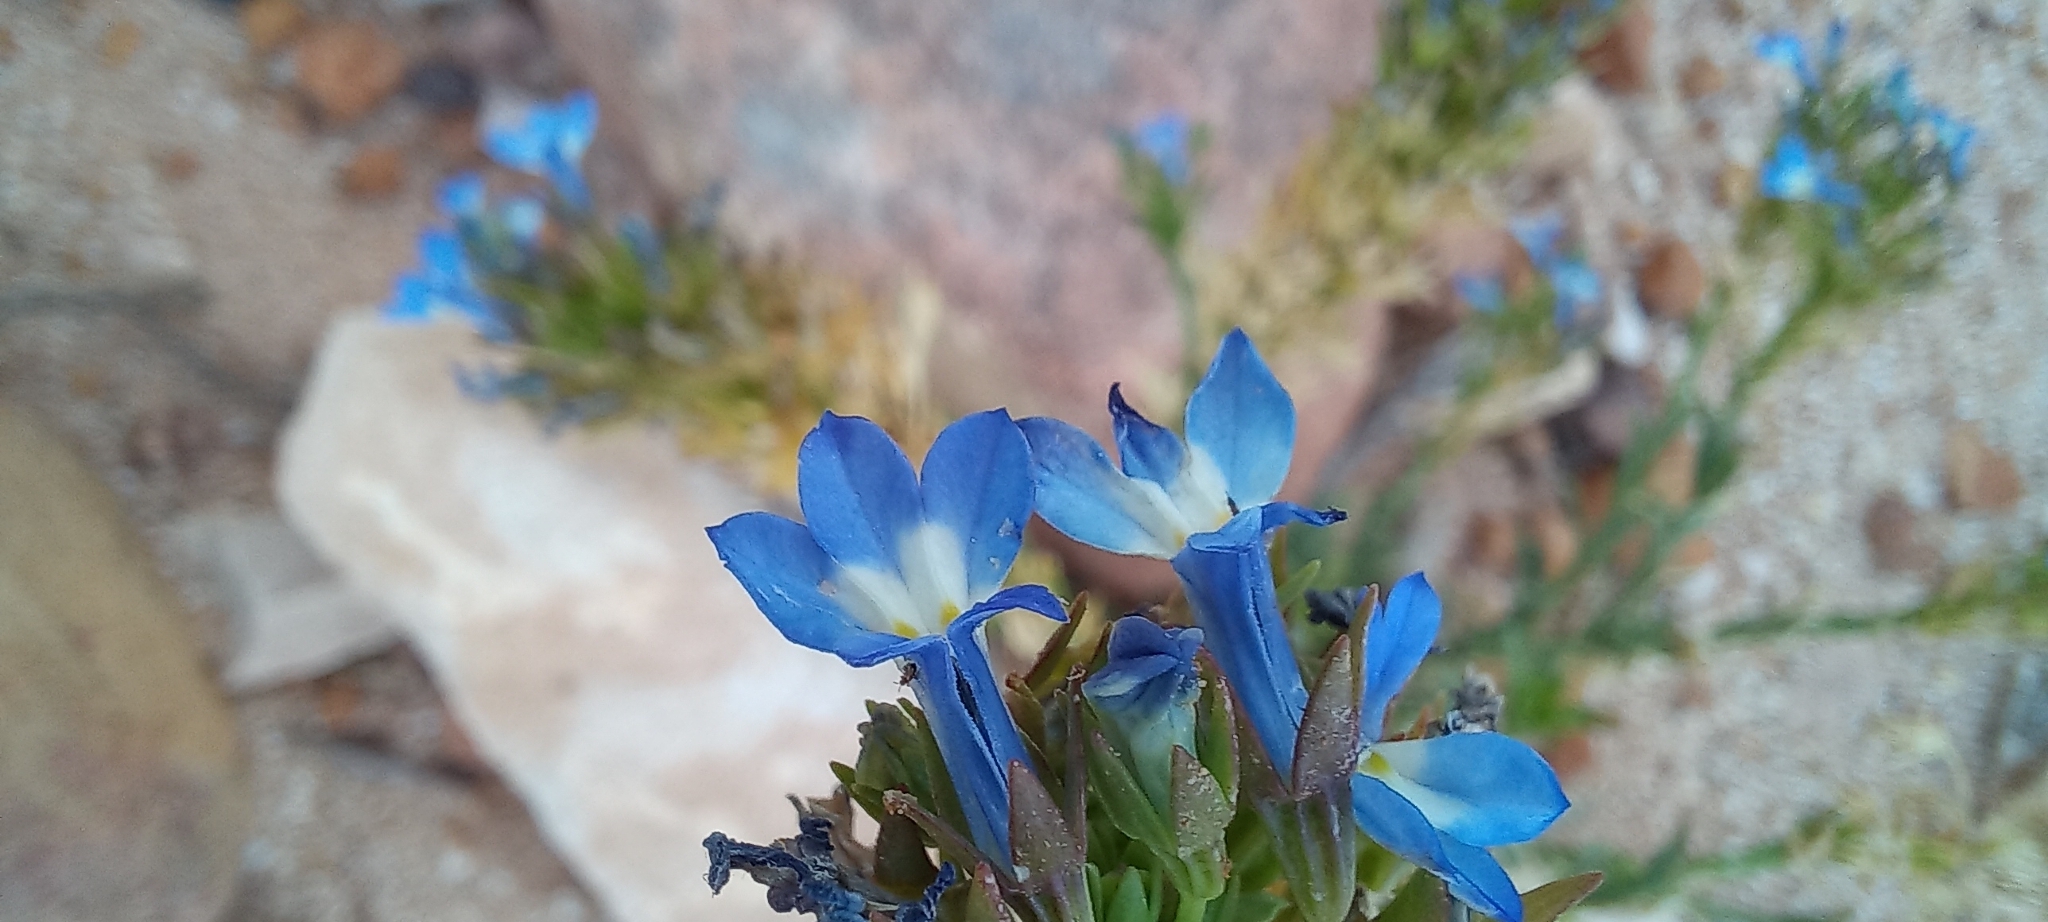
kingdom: Plantae
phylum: Tracheophyta
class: Magnoliopsida
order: Asterales
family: Campanulaceae
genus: Lobelia
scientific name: Lobelia comosa
